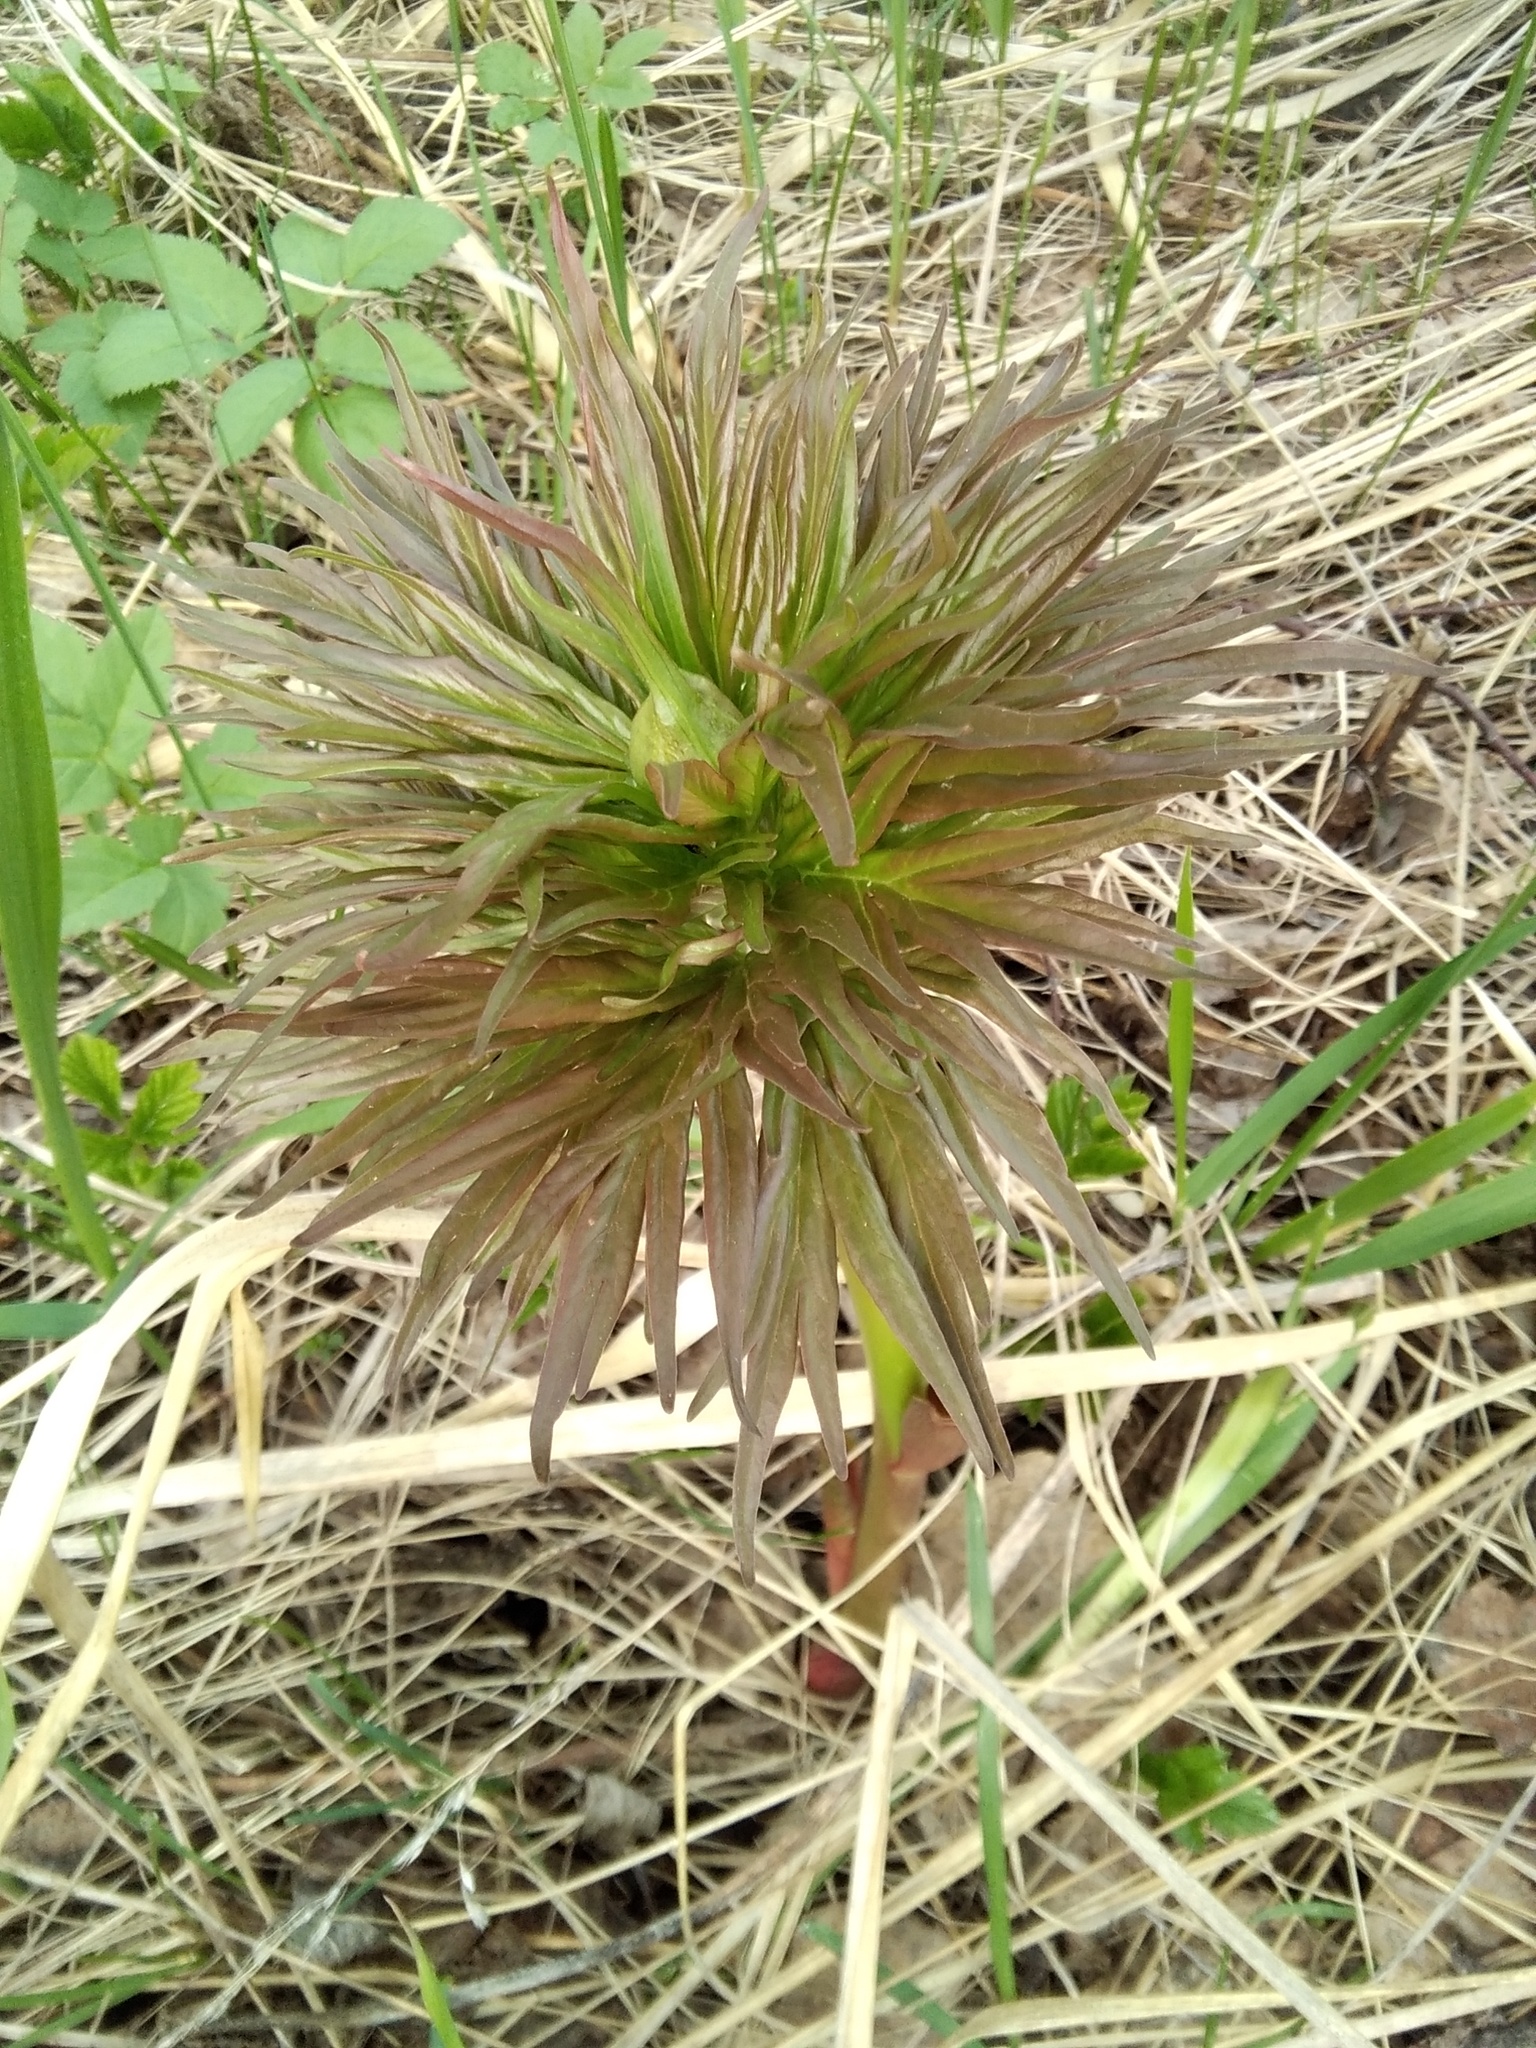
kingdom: Plantae
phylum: Tracheophyta
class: Magnoliopsida
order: Saxifragales
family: Paeoniaceae
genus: Paeonia
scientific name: Paeonia anomala
